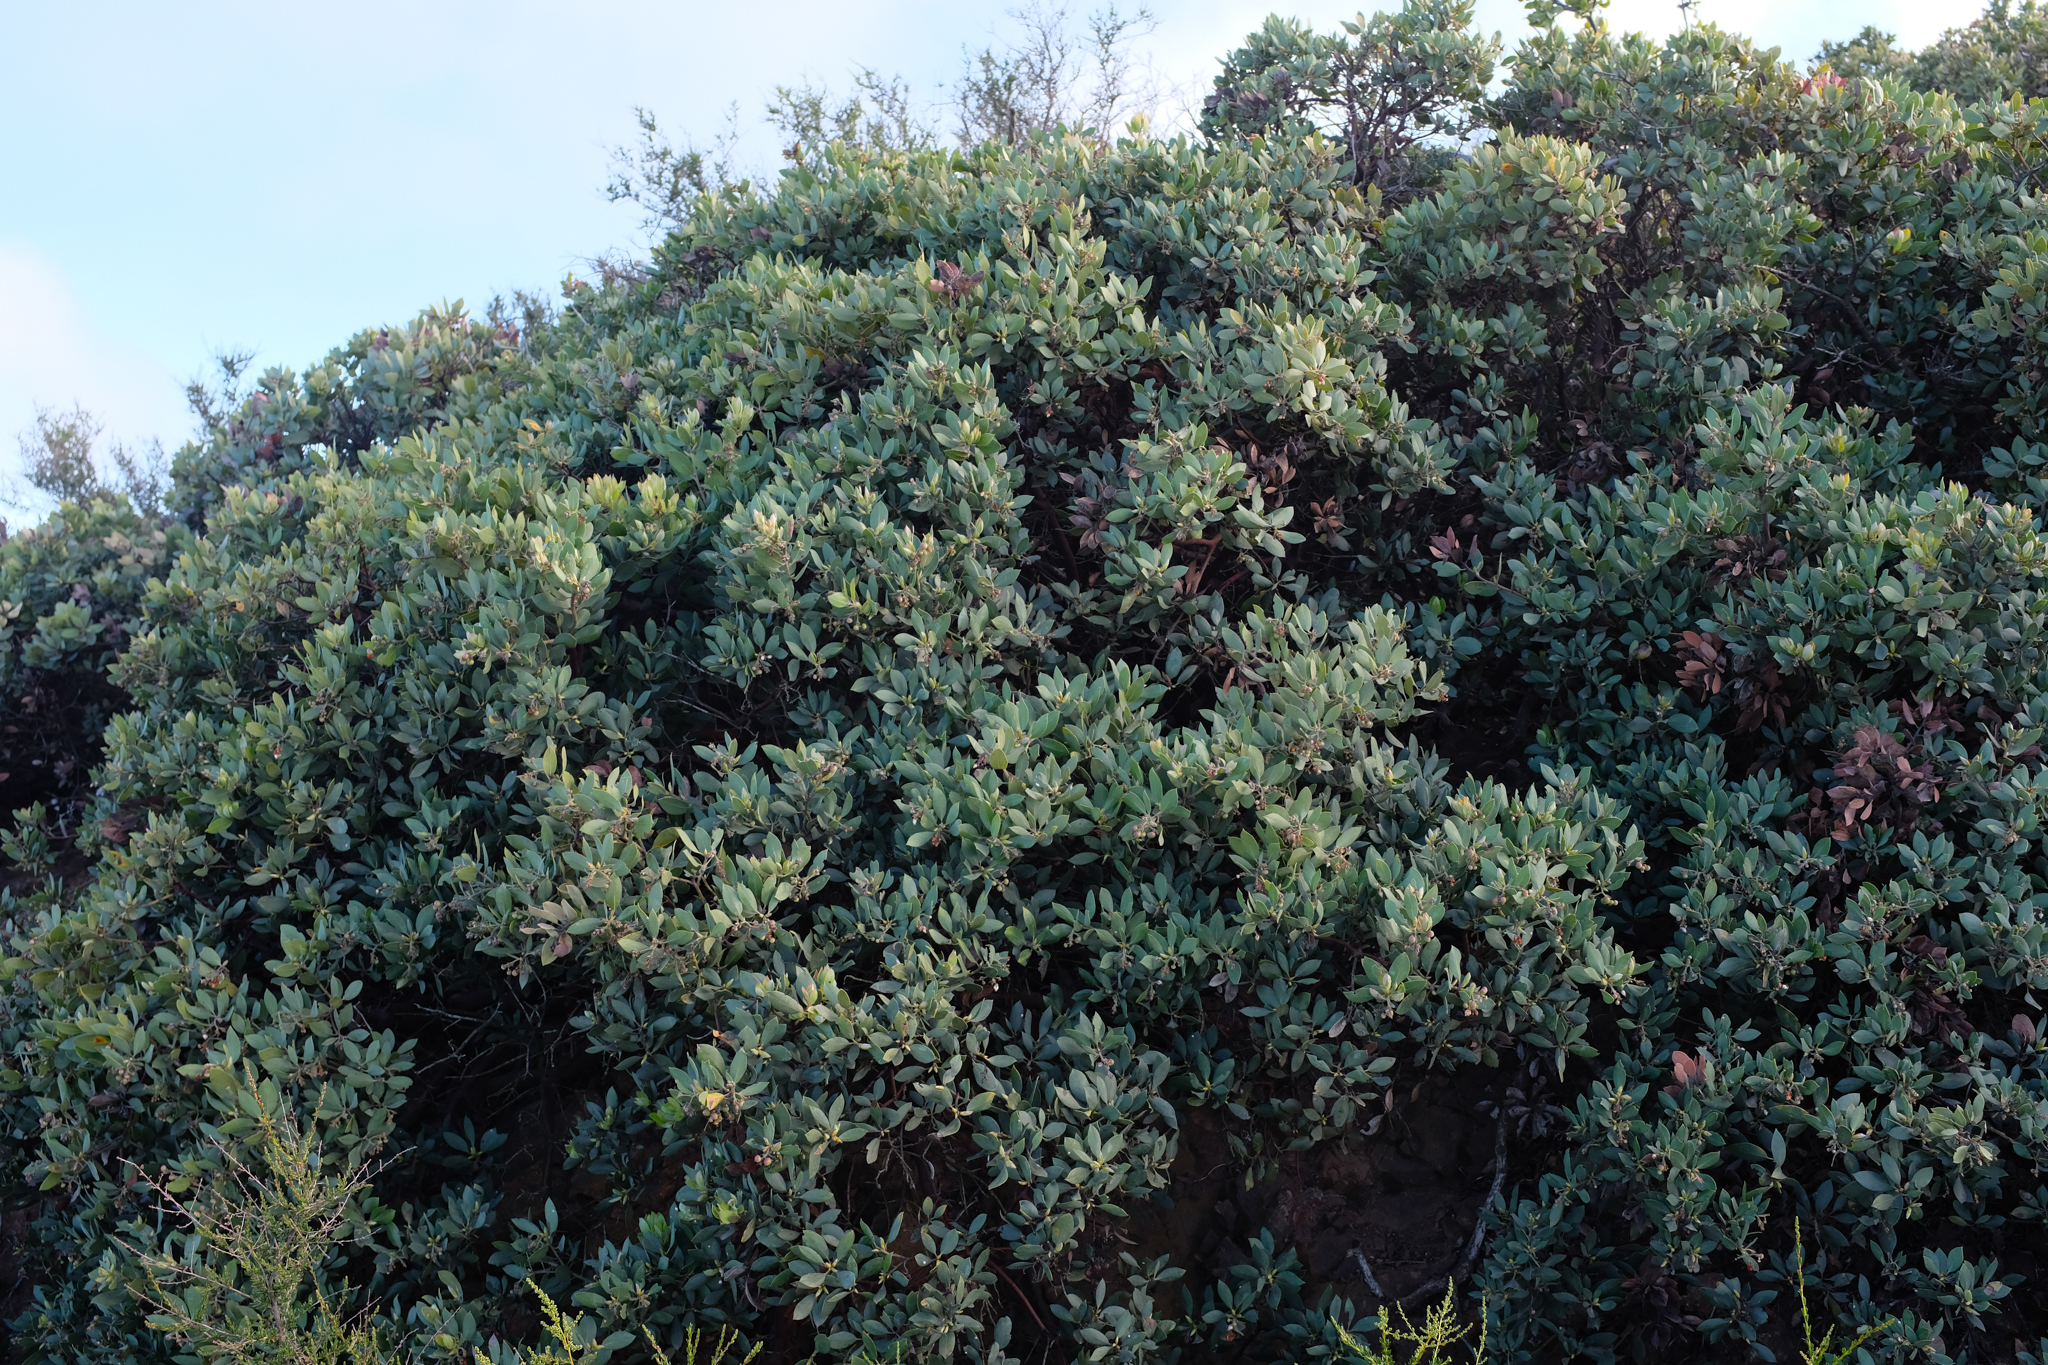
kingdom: Plantae
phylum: Tracheophyta
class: Magnoliopsida
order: Ericales
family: Ericaceae
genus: Arctostaphylos
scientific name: Arctostaphylos glandulosa
